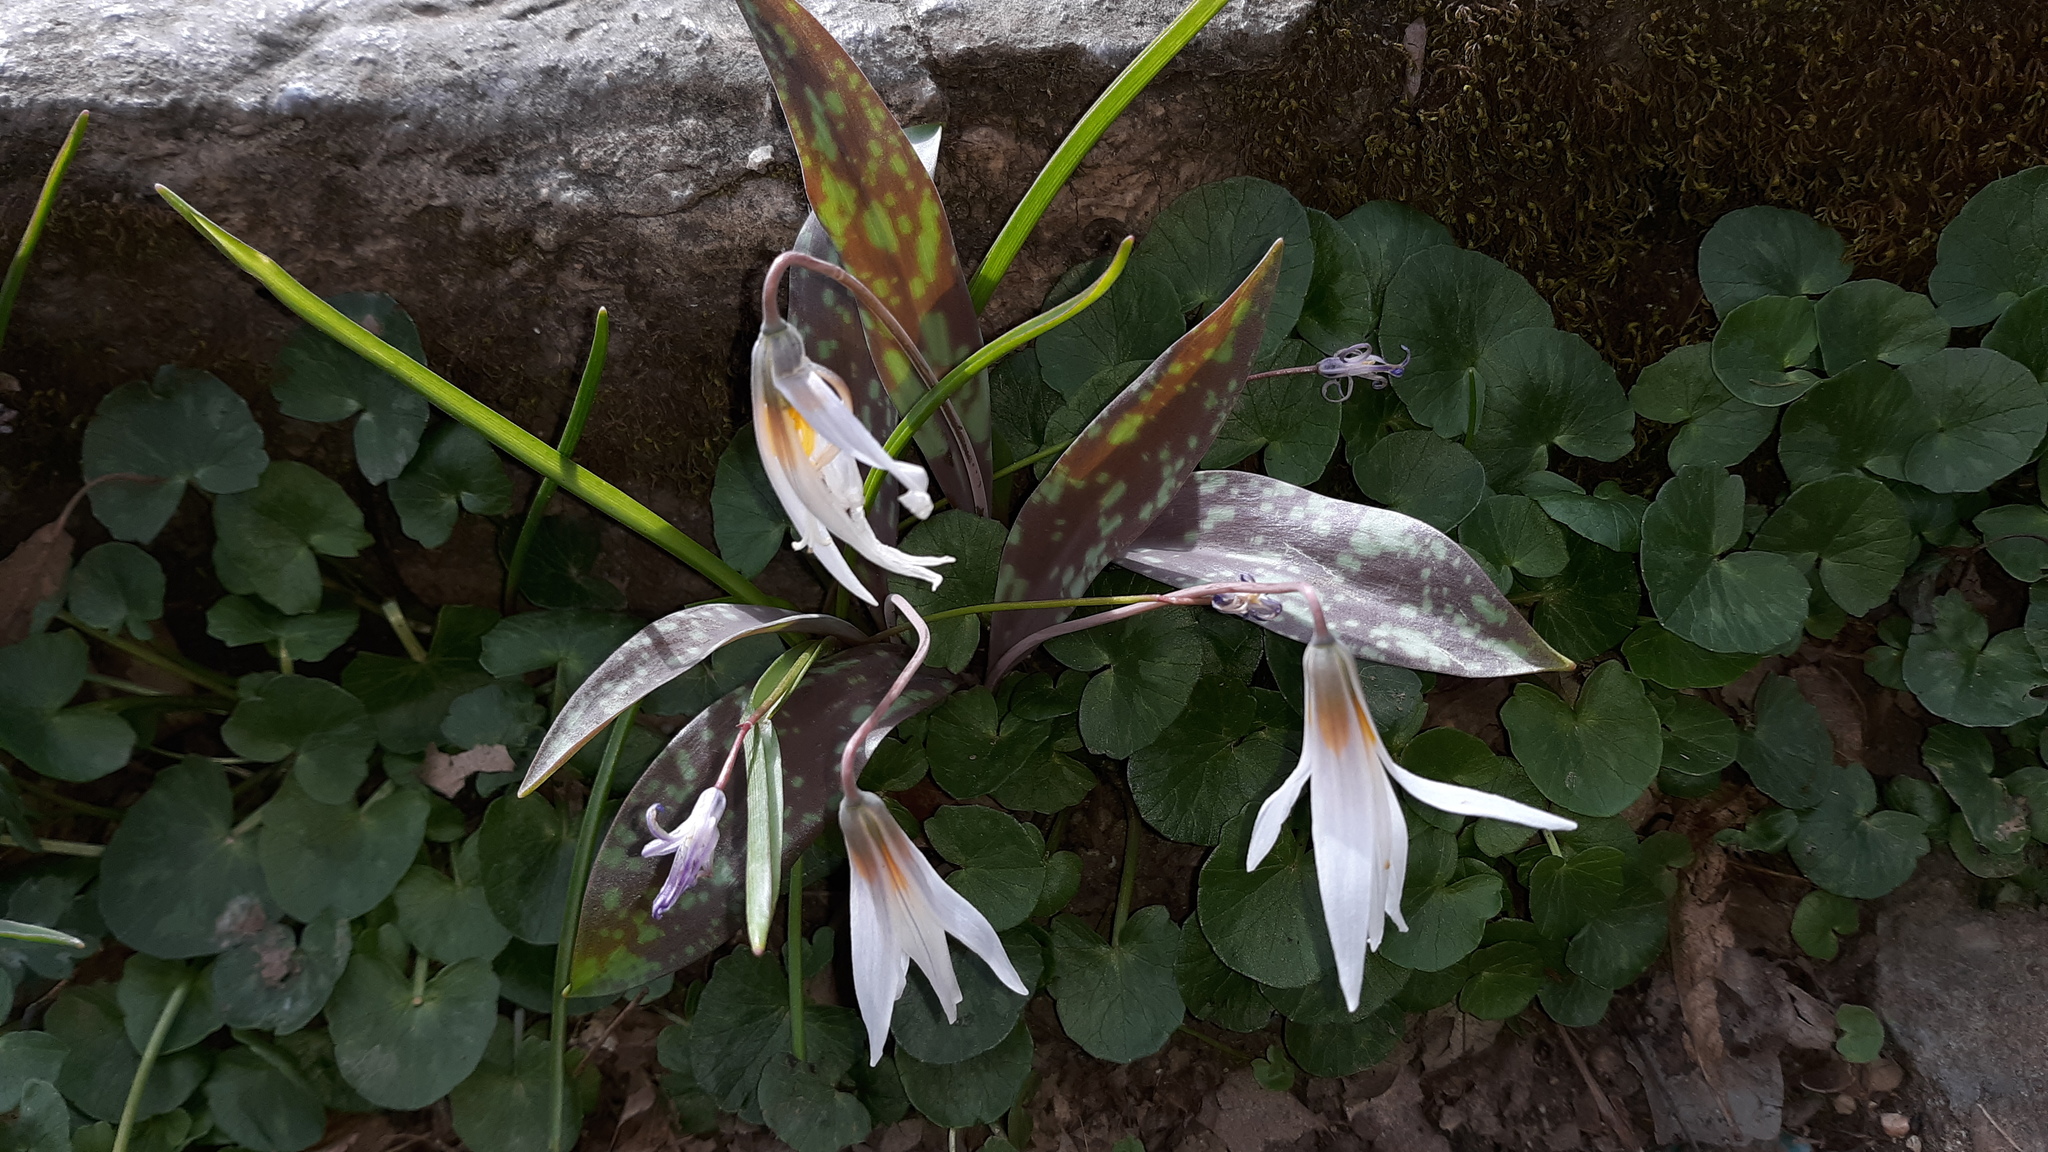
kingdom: Plantae
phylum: Tracheophyta
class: Liliopsida
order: Liliales
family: Liliaceae
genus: Erythronium
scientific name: Erythronium albidum
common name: White trout-lily
